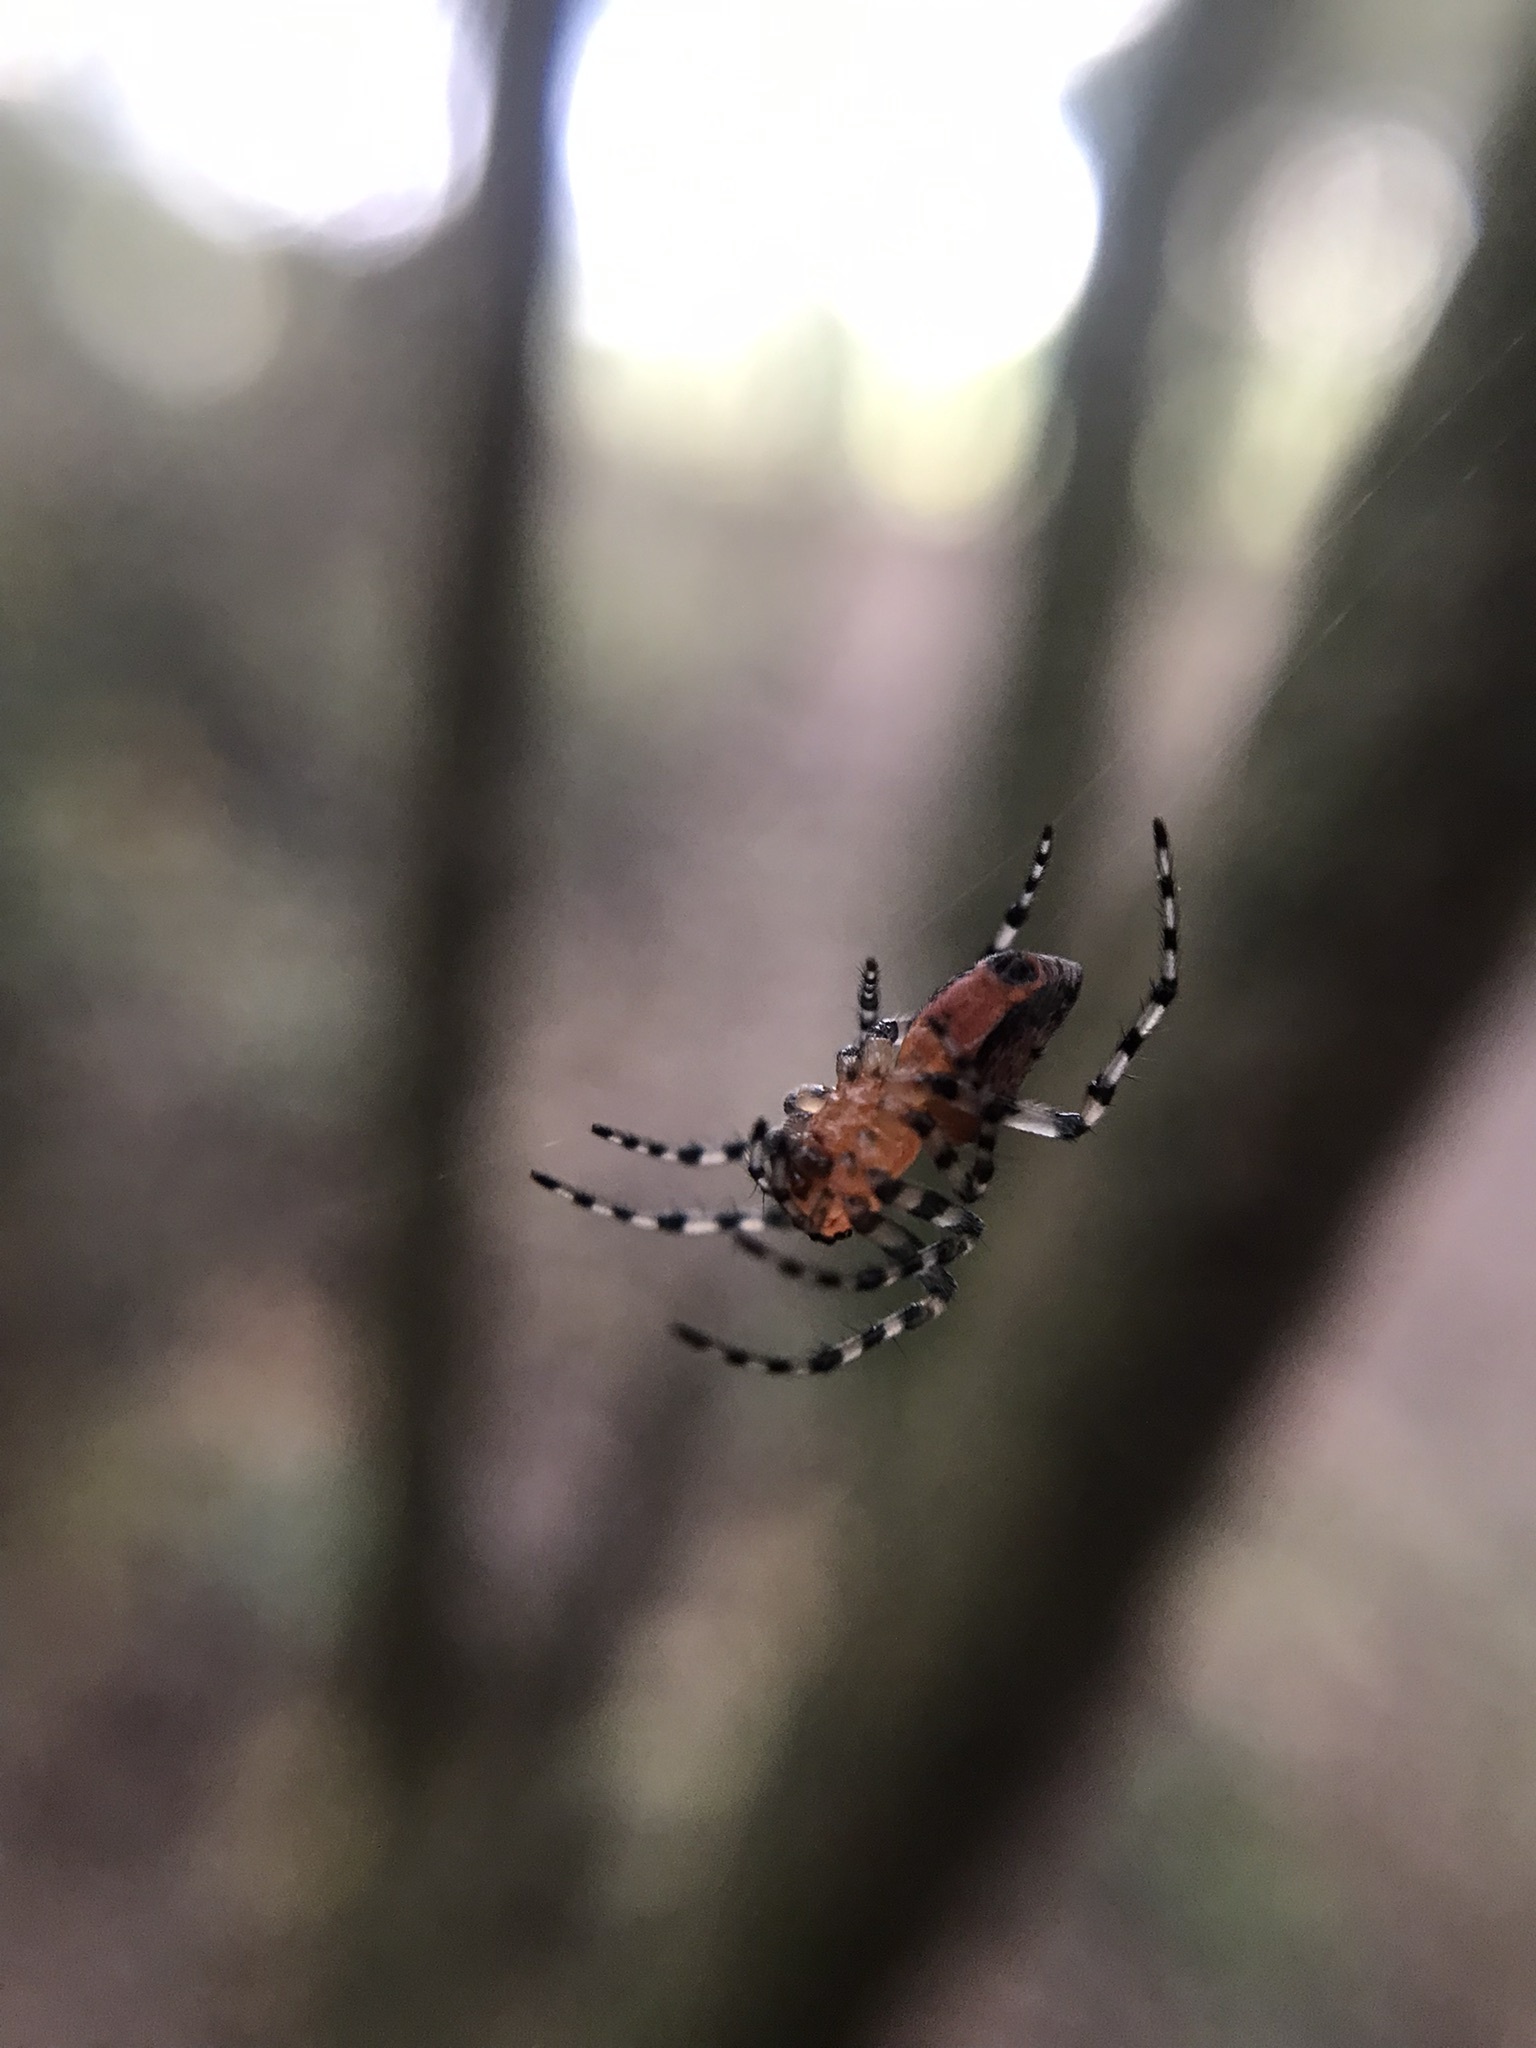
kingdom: Animalia
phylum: Arthropoda
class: Arachnida
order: Araneae
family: Araneidae
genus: Alpaida
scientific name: Alpaida gallardoi
